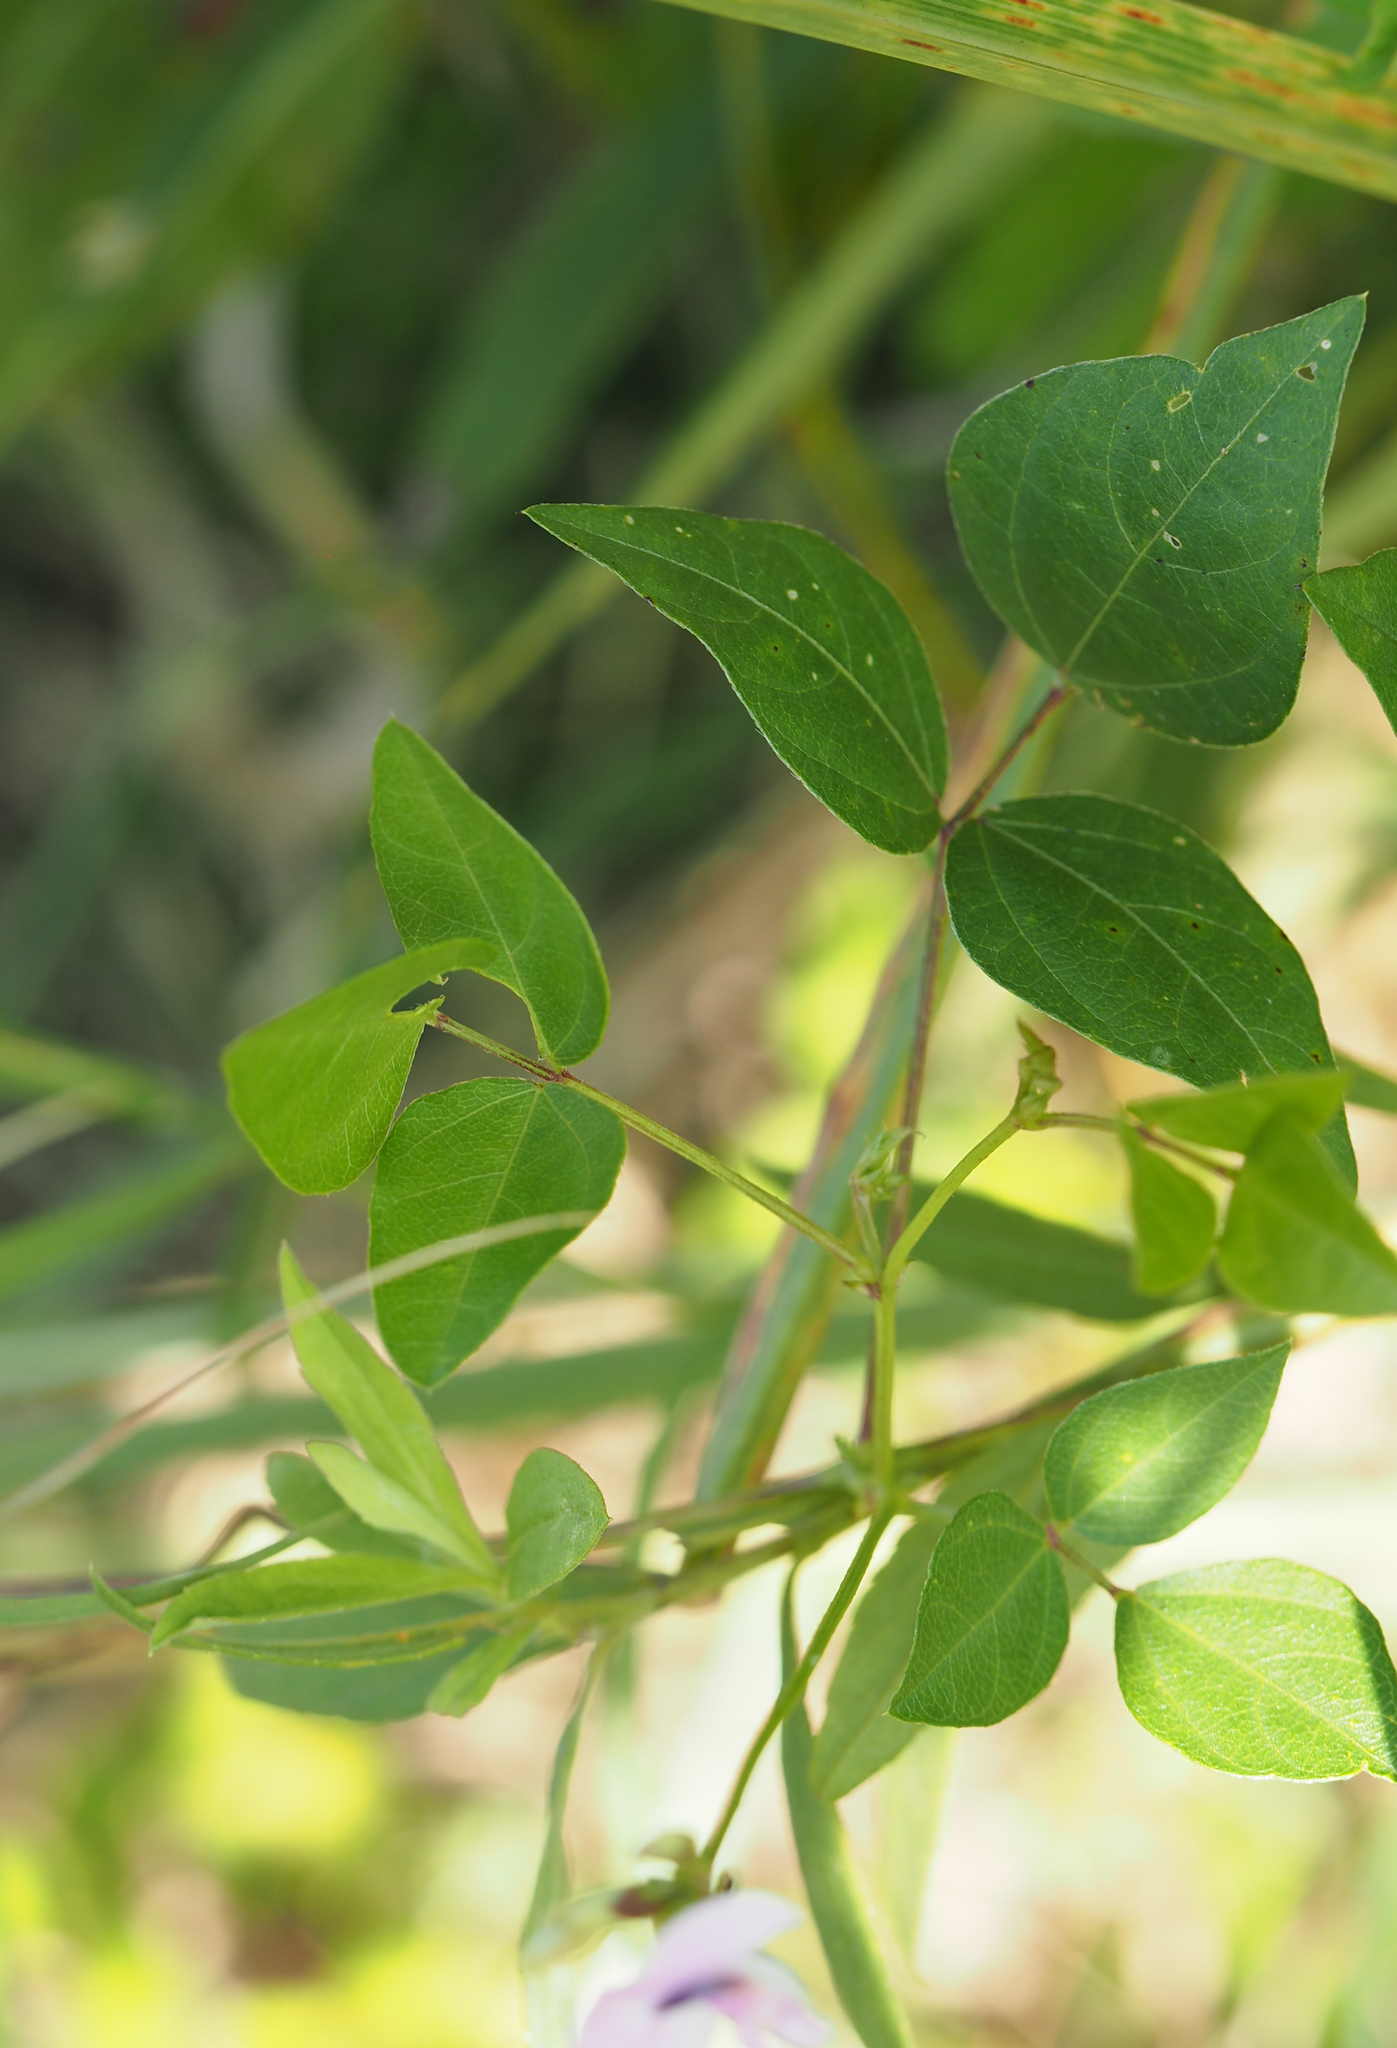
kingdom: Plantae
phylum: Tracheophyta
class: Magnoliopsida
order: Fabales
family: Fabaceae
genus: Strophostyles
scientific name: Strophostyles helvola
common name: Trailing wild bean
